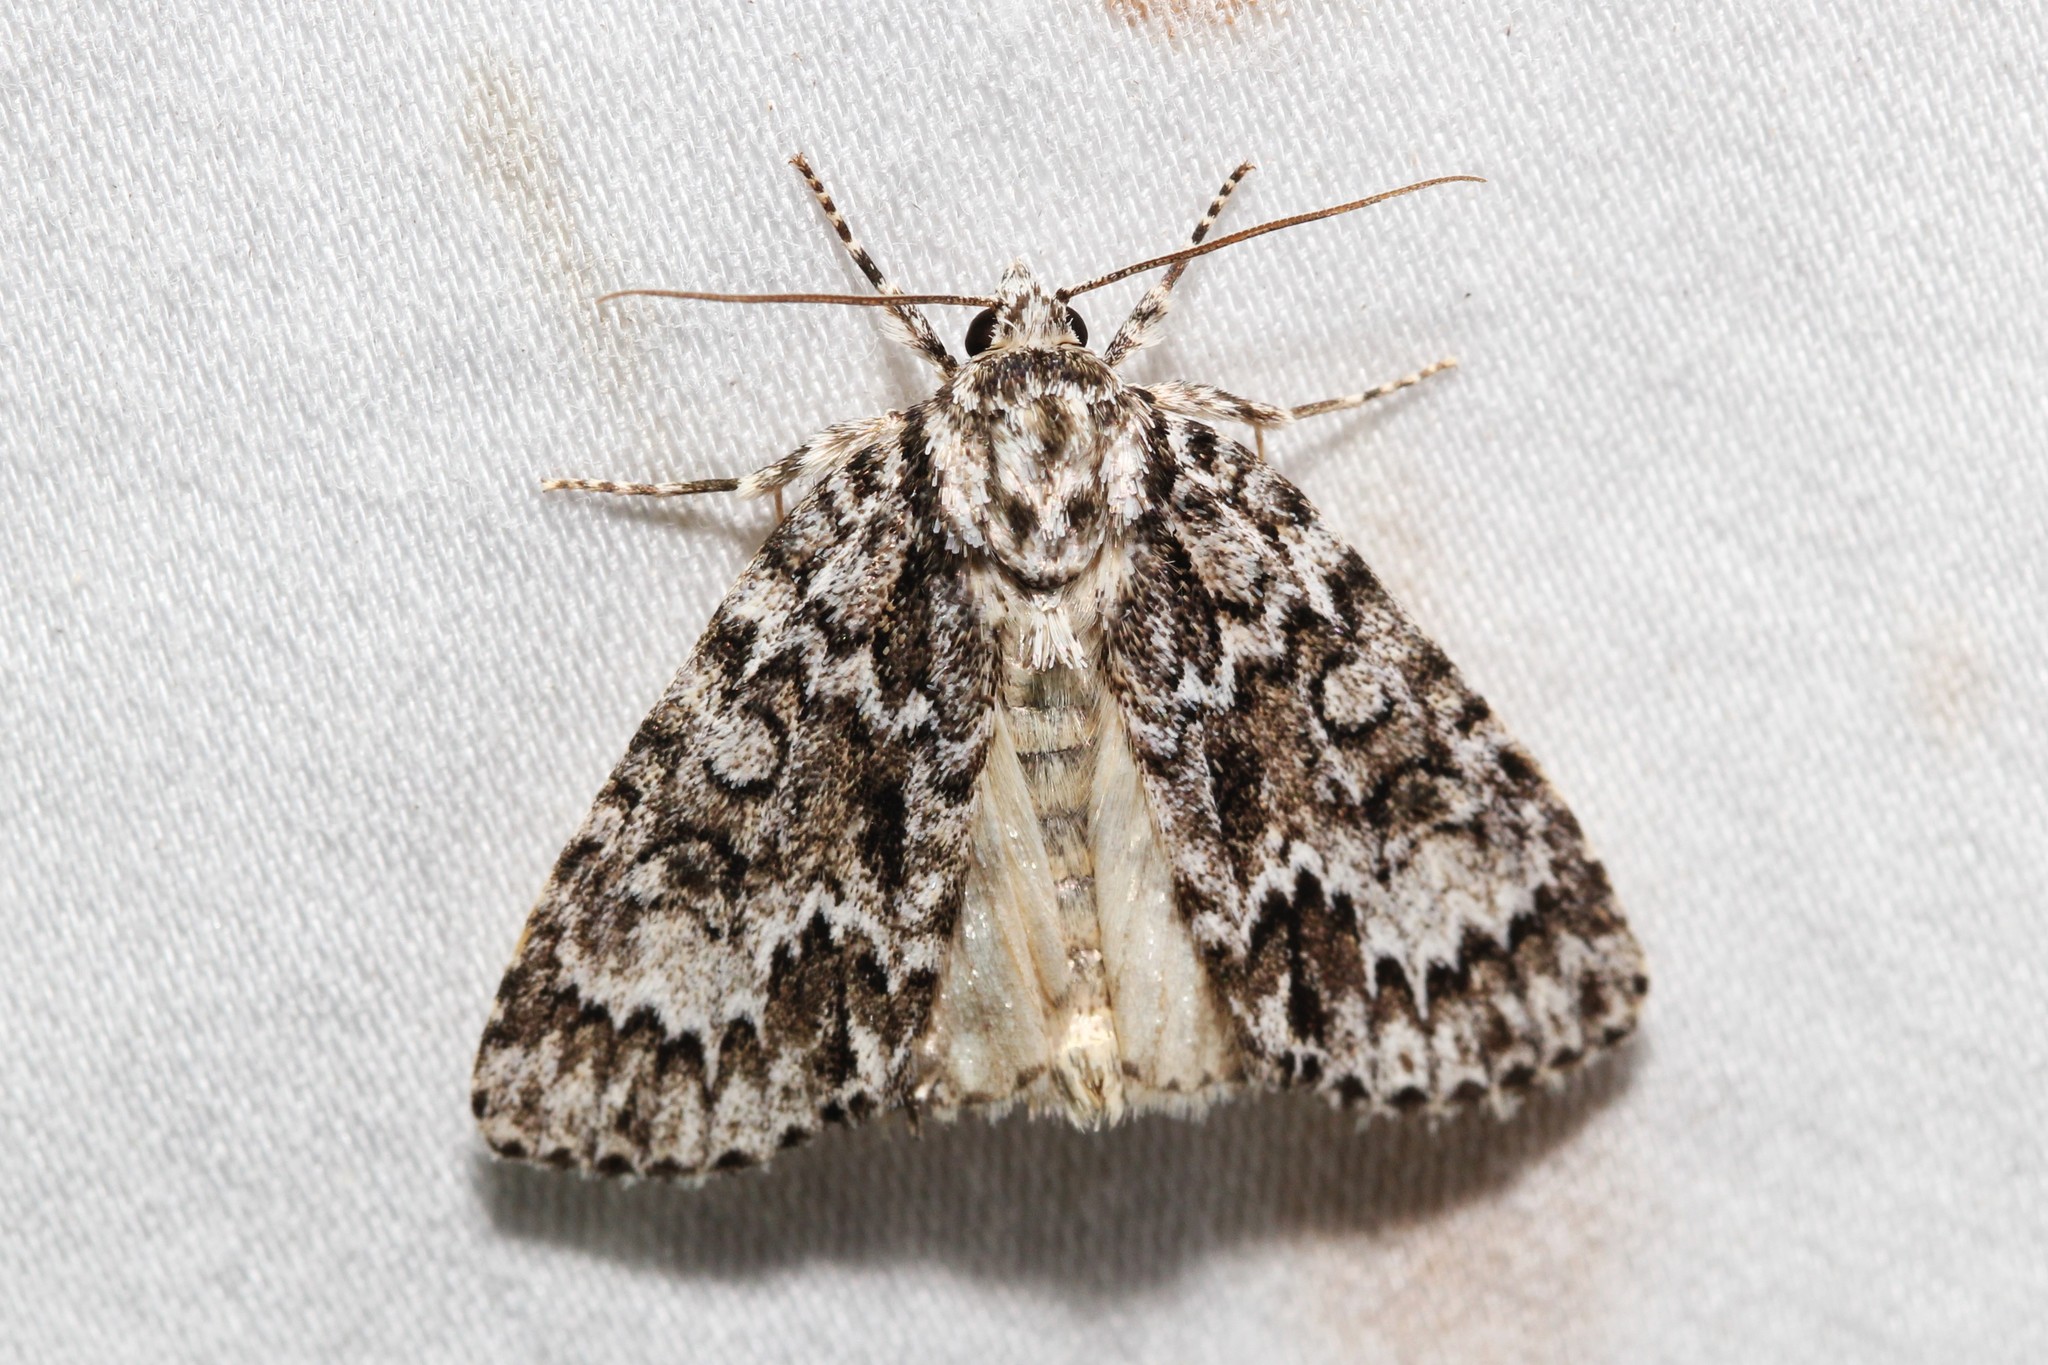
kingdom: Animalia
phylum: Arthropoda
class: Insecta
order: Lepidoptera
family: Noctuidae
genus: Acronicta
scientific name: Acronicta fragilis
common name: Fragile dagger
